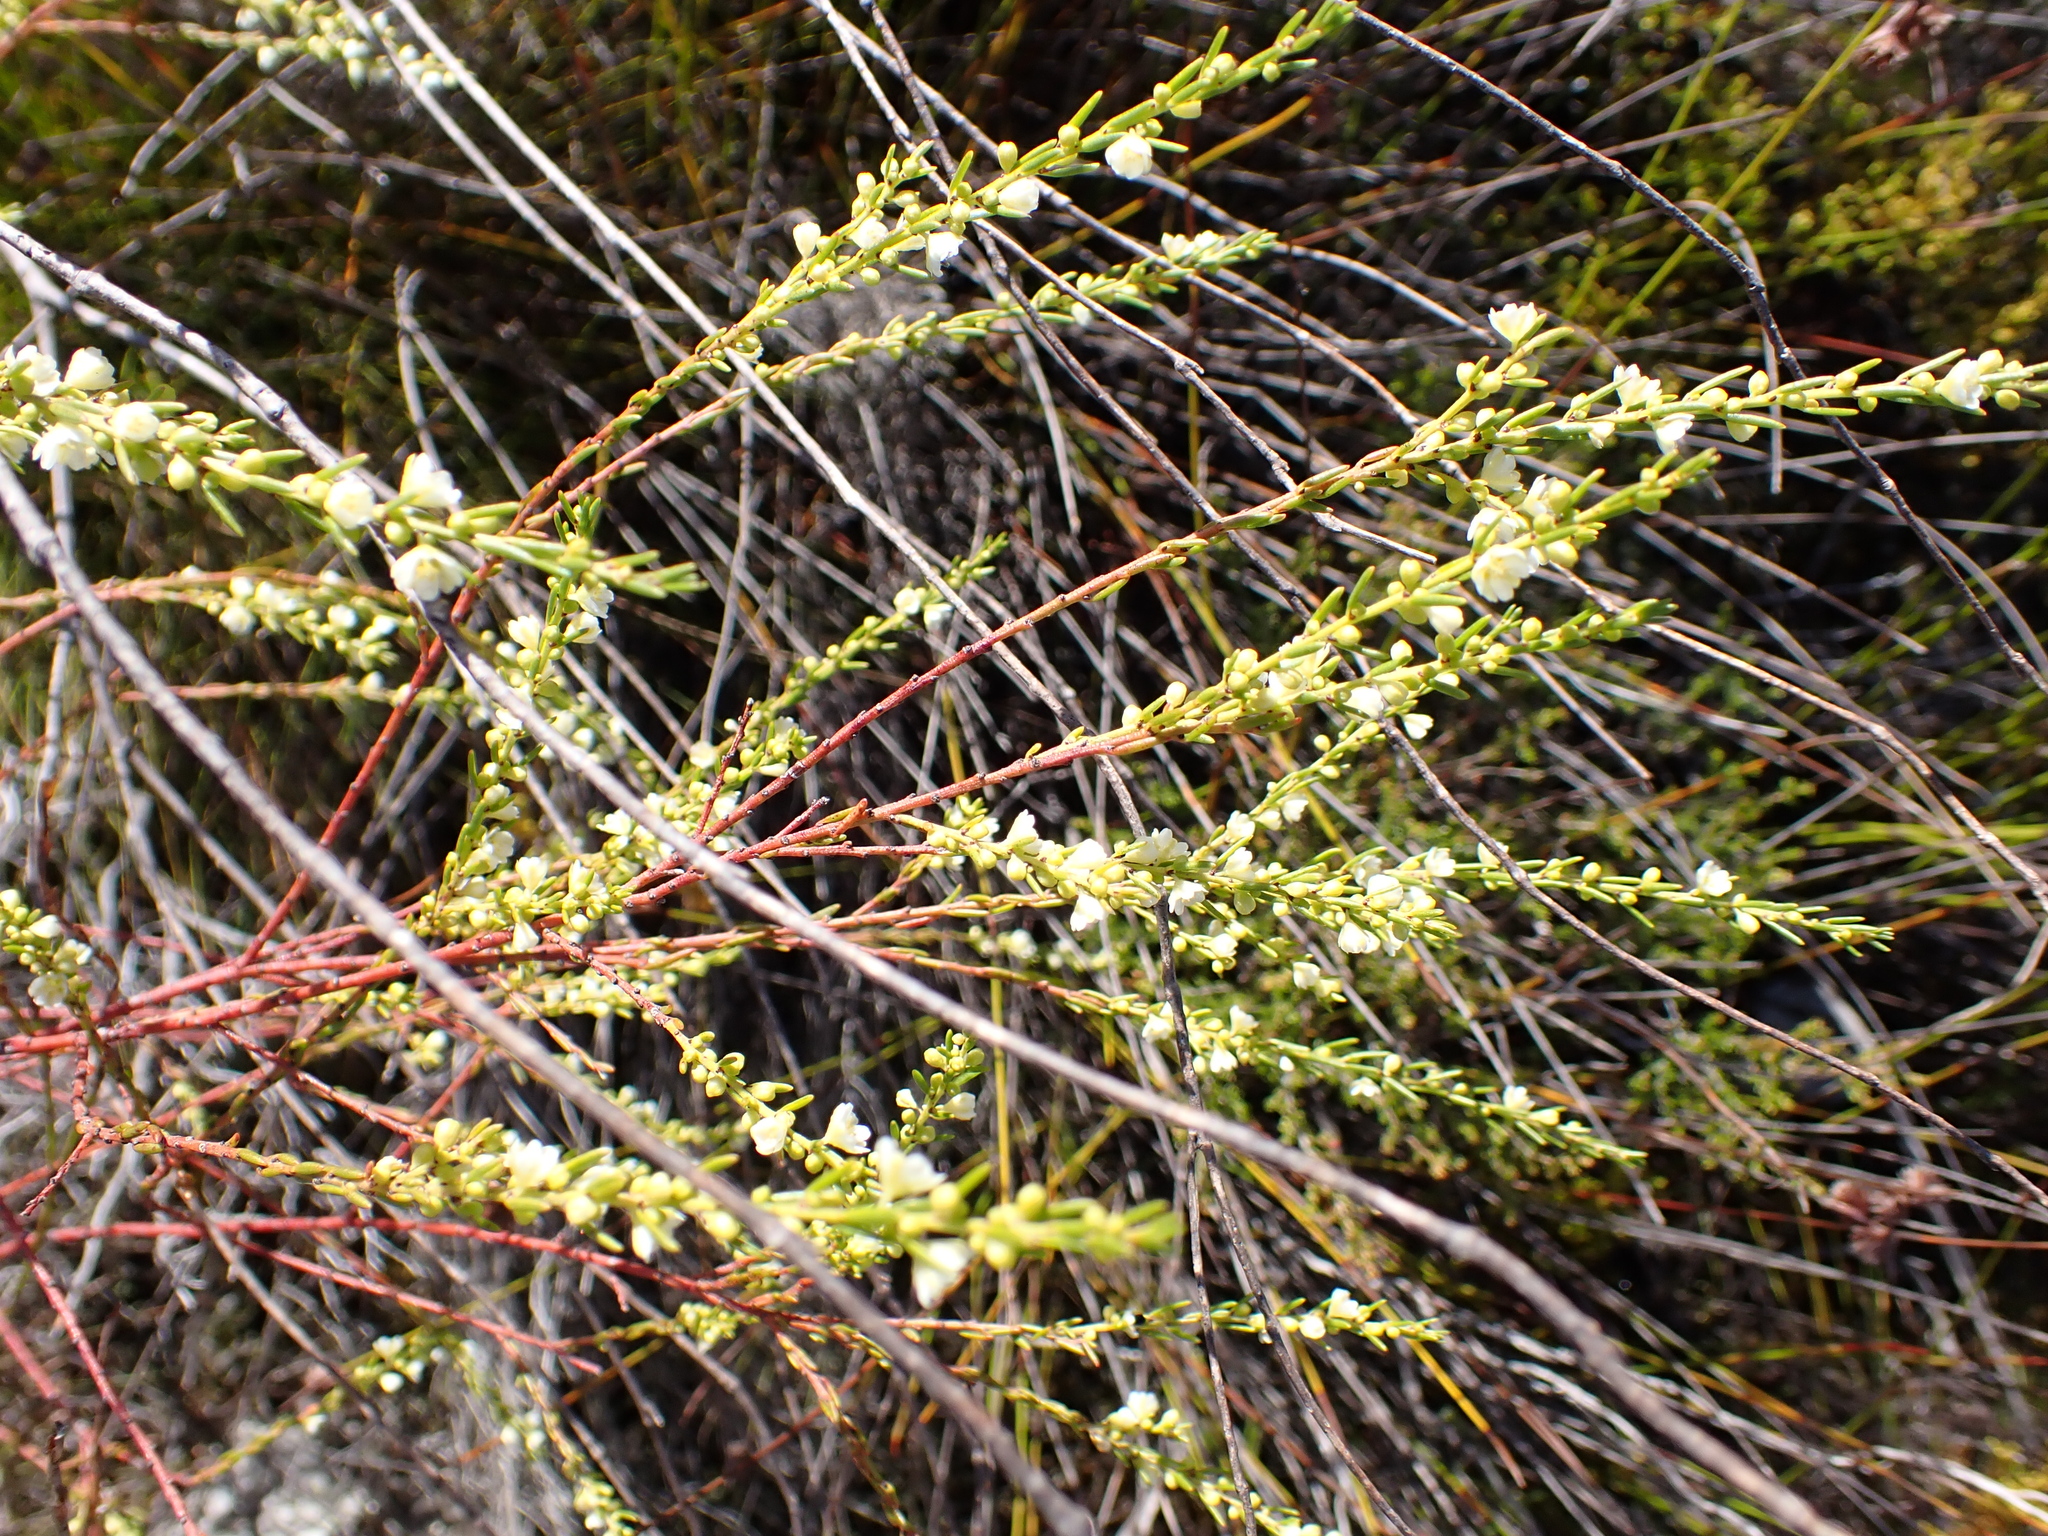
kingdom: Plantae
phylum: Tracheophyta
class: Magnoliopsida
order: Malpighiales
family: Peraceae
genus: Clutia
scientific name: Clutia ericoides
